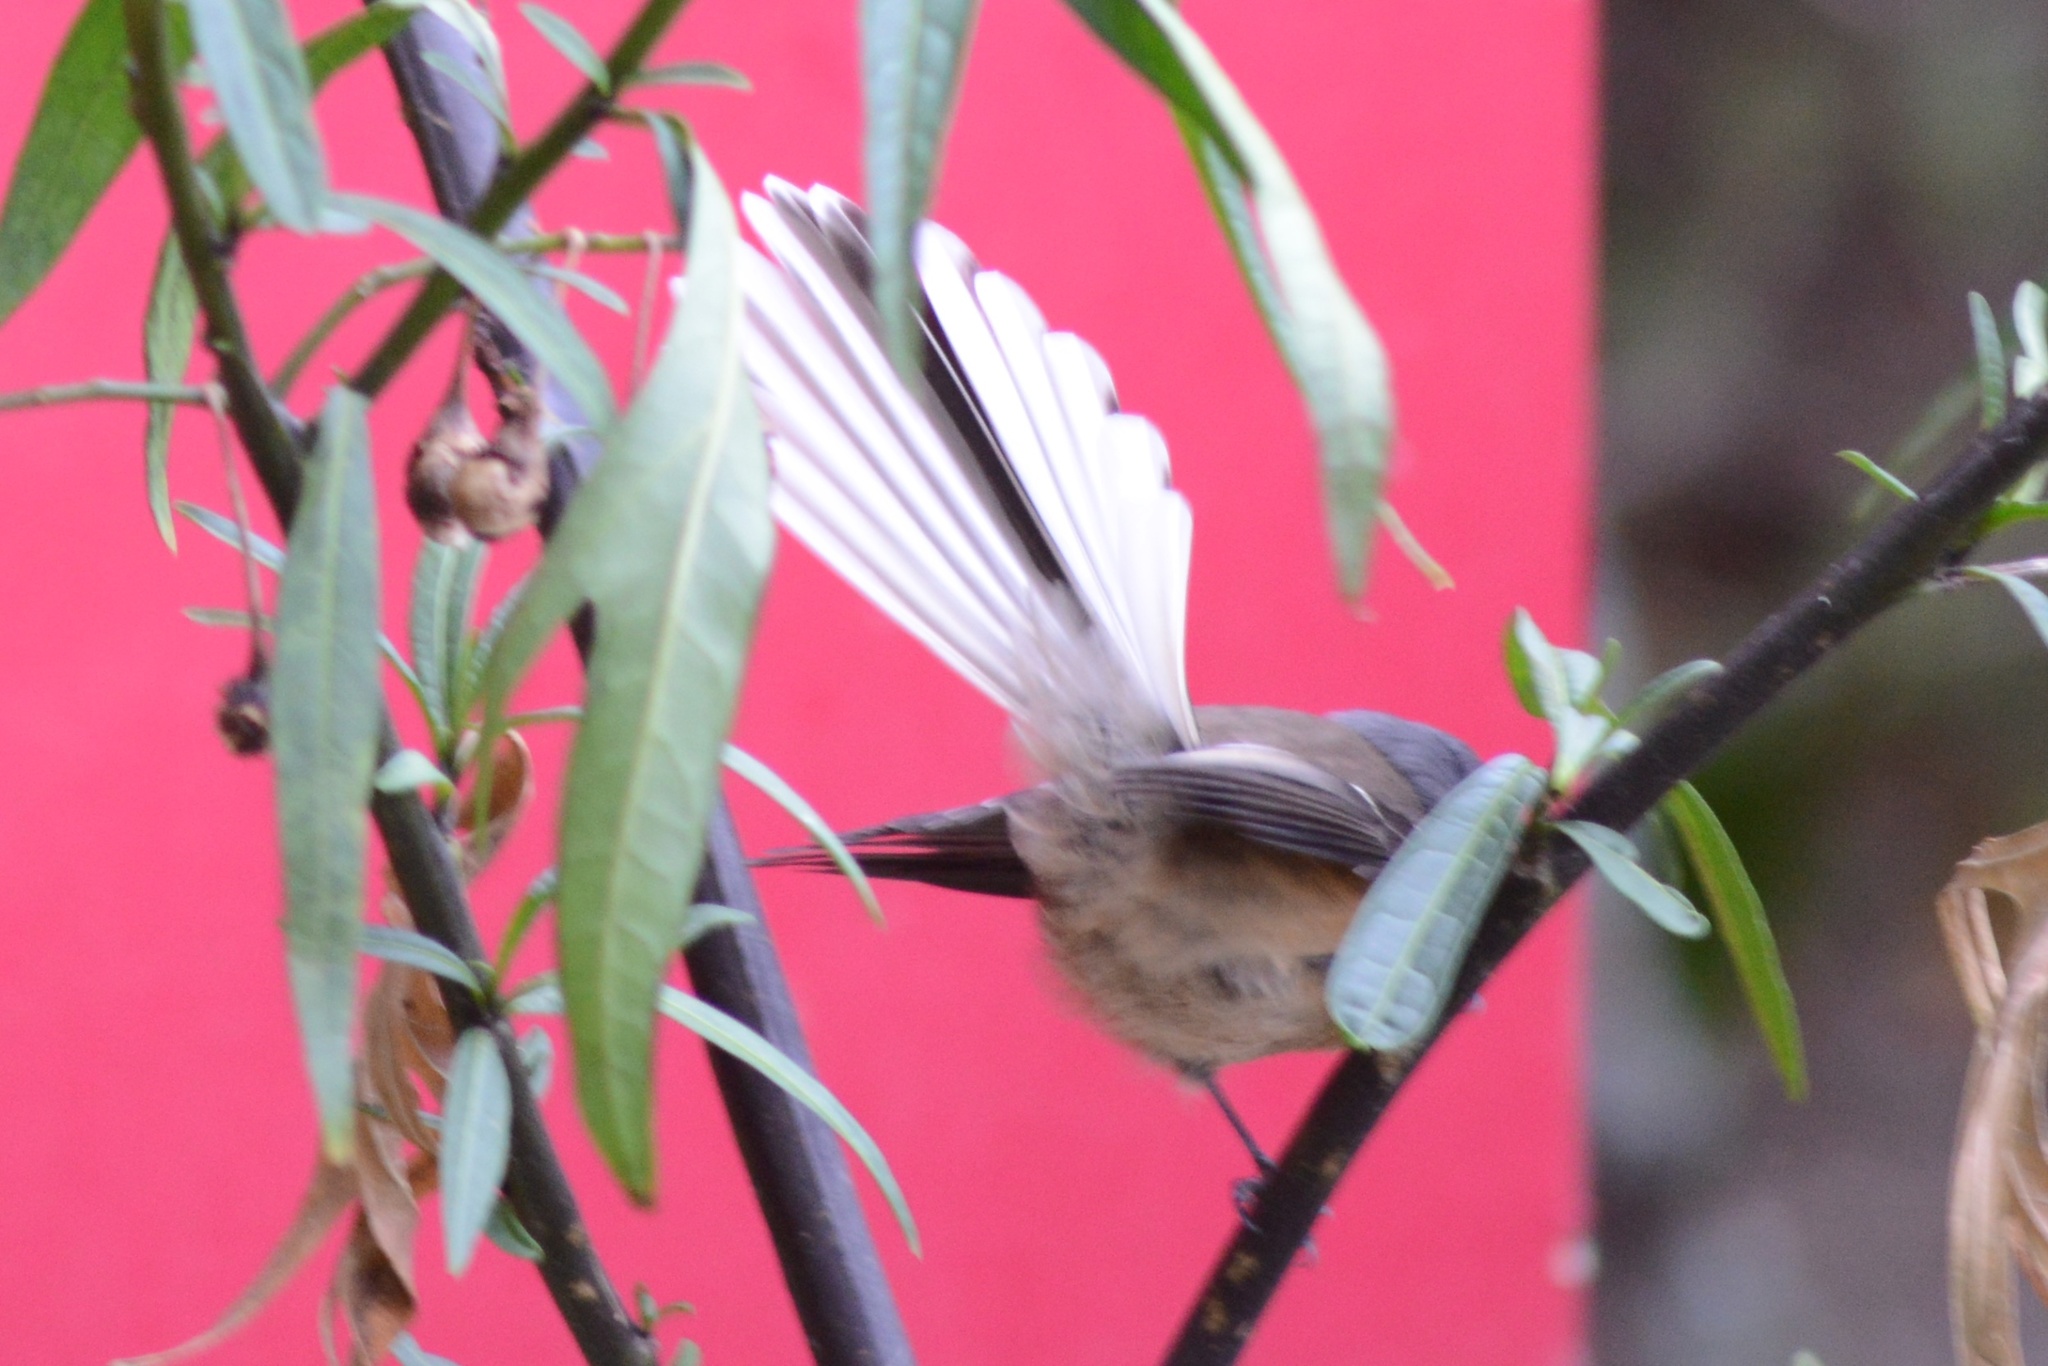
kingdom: Animalia
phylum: Chordata
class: Aves
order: Passeriformes
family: Rhipiduridae
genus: Rhipidura
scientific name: Rhipidura fuliginosa
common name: New zealand fantail
